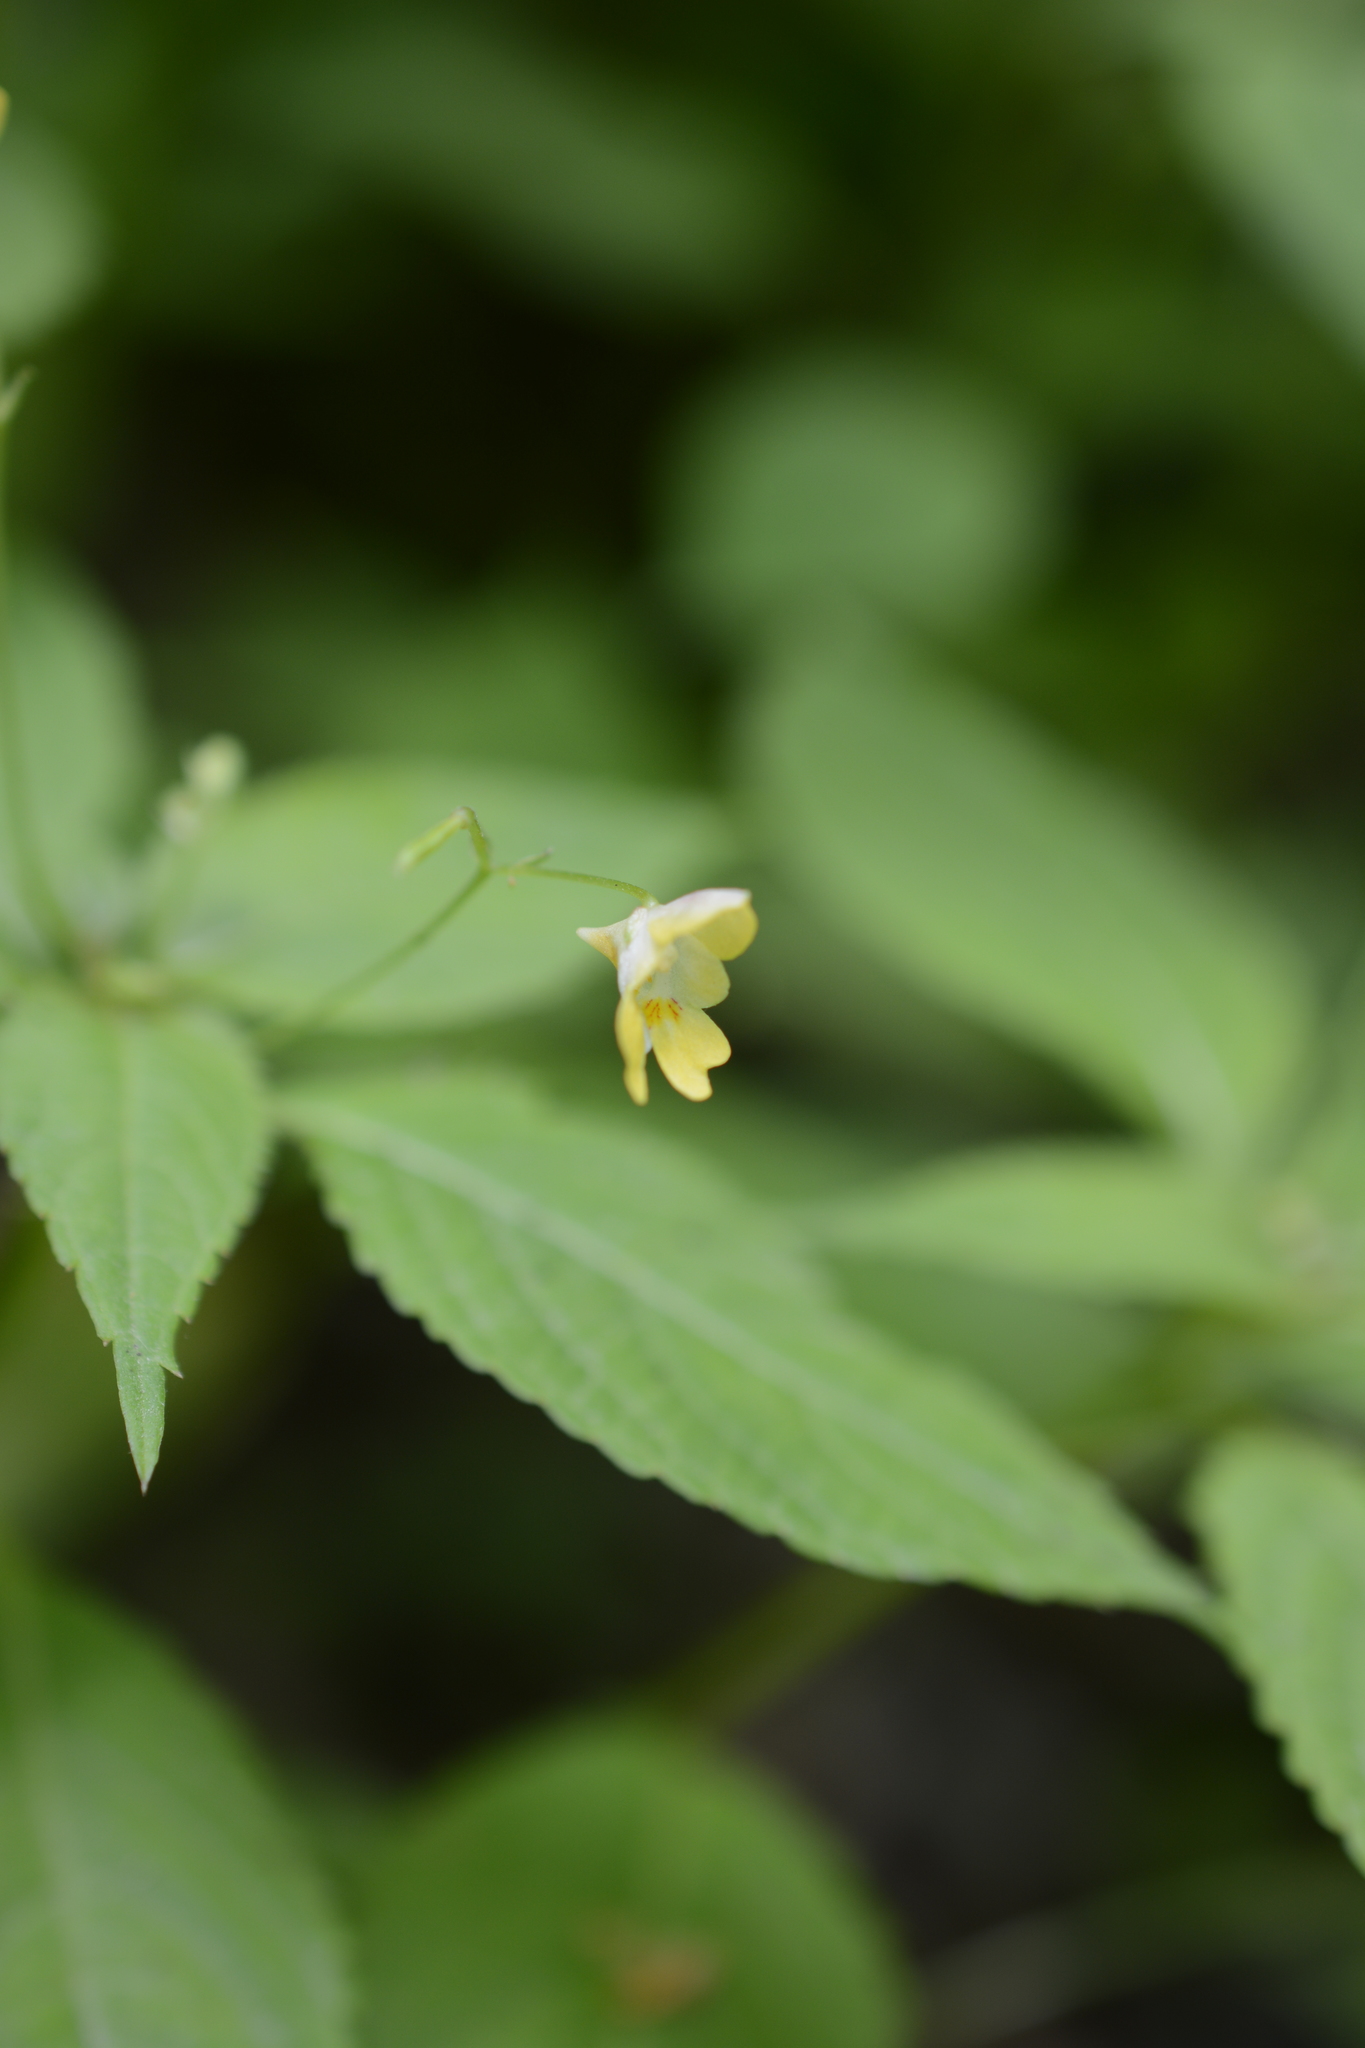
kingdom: Plantae
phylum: Tracheophyta
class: Magnoliopsida
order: Ericales
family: Balsaminaceae
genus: Impatiens
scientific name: Impatiens parviflora
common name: Small balsam
